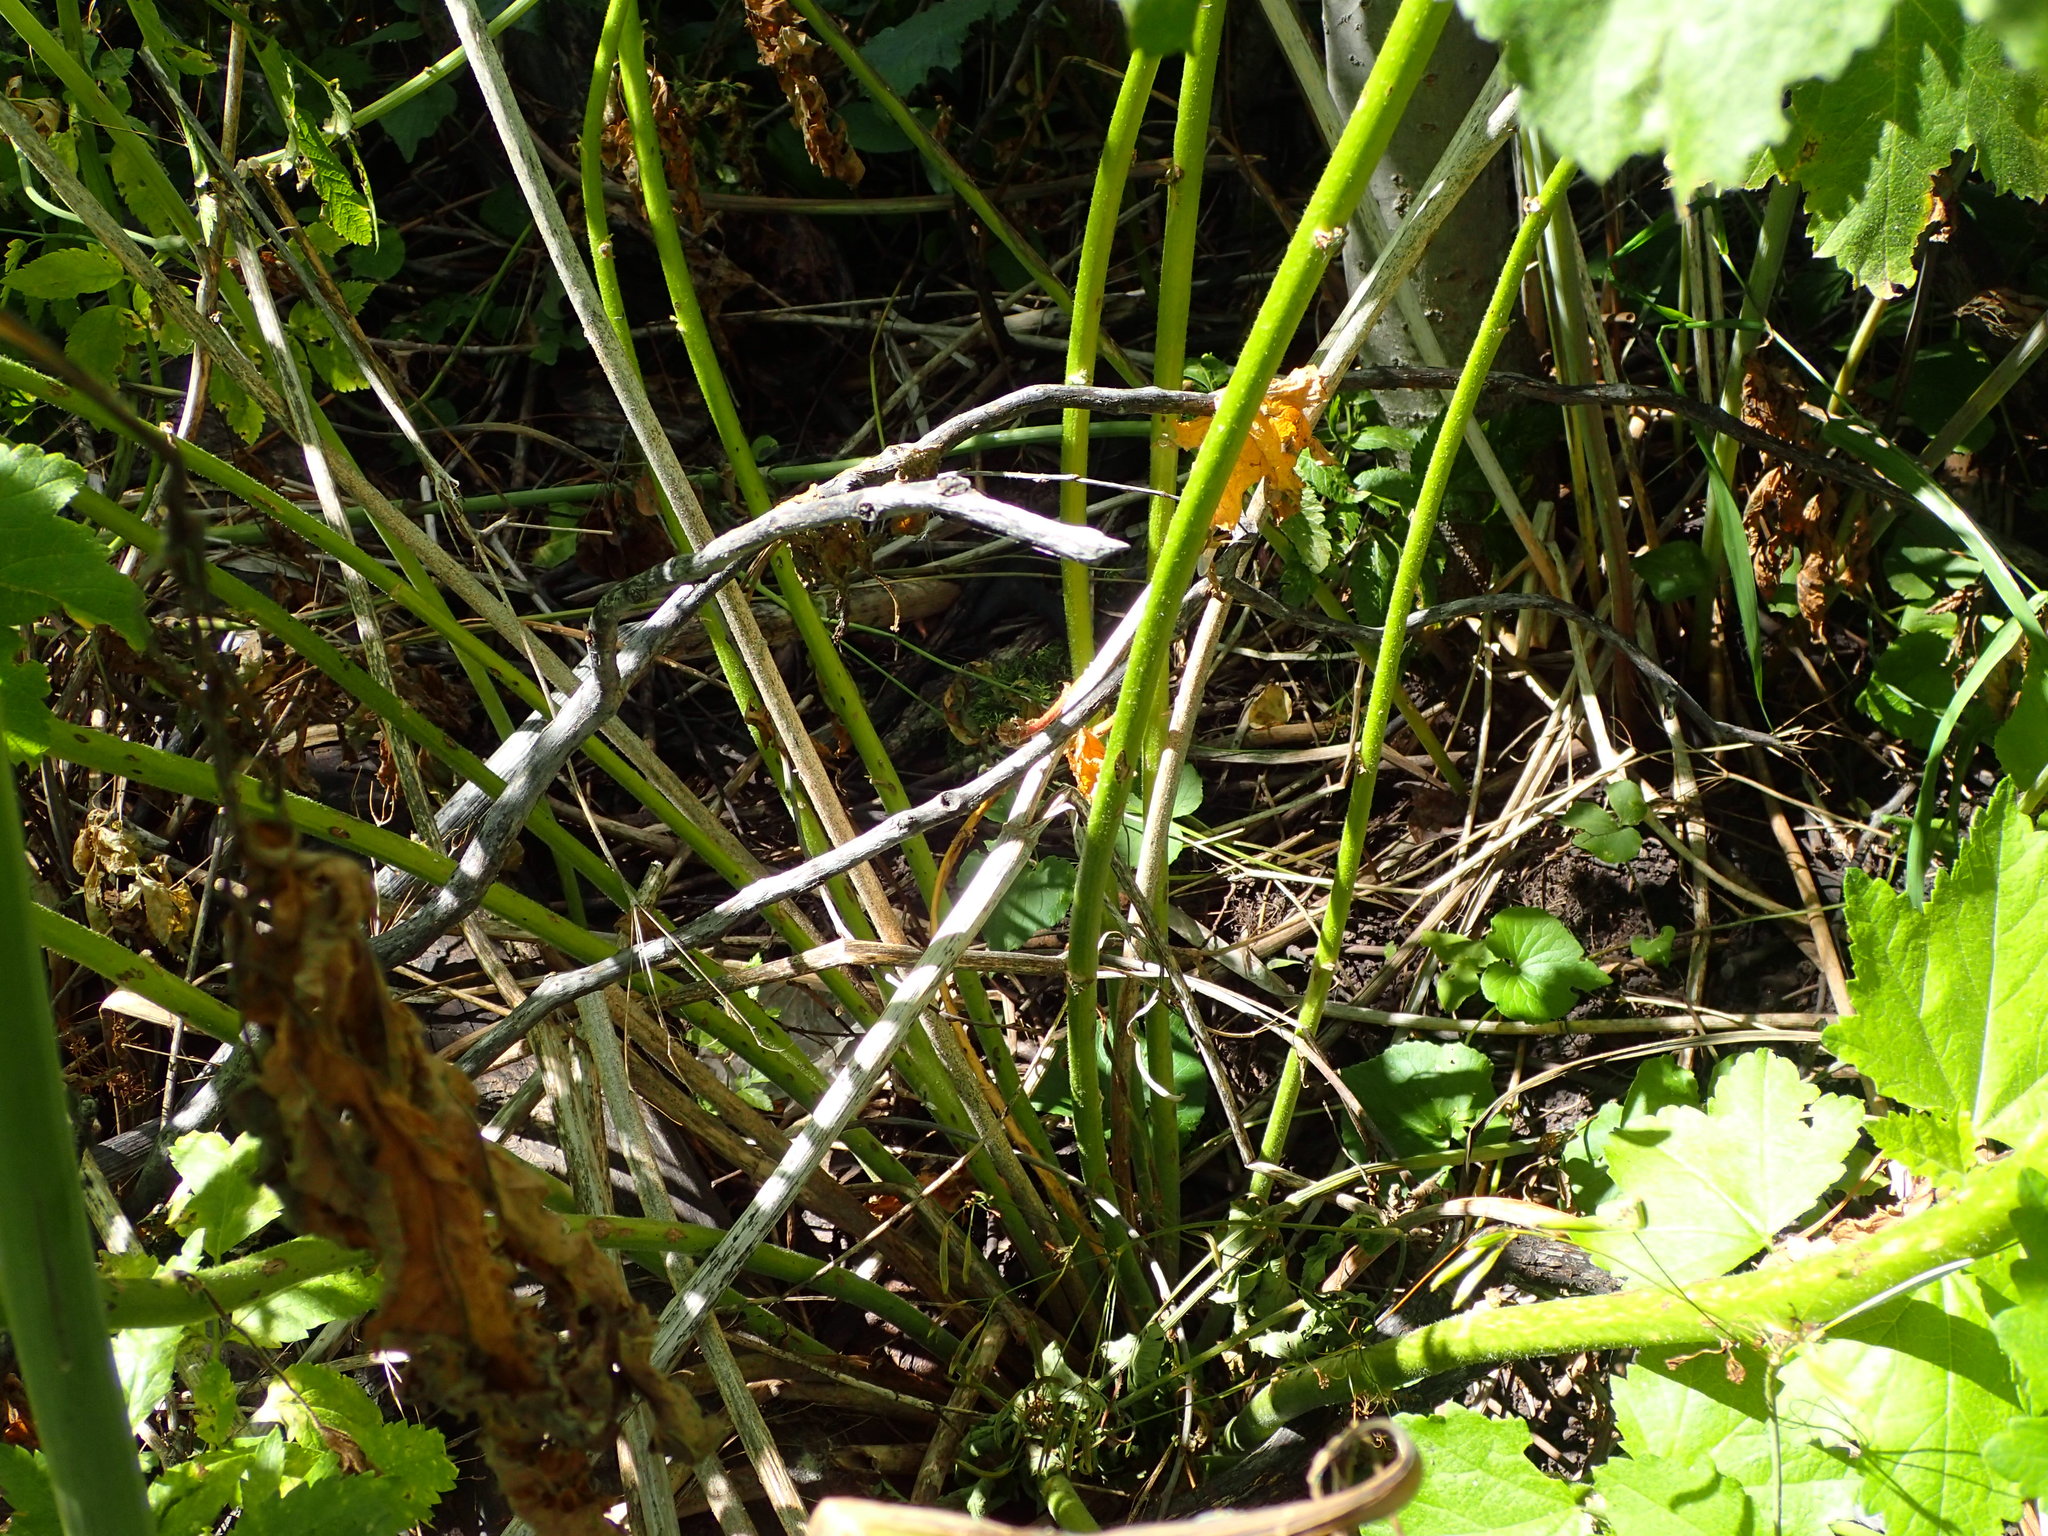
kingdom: Plantae
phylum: Tracheophyta
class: Magnoliopsida
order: Malvales
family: Malvaceae
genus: Iliamna
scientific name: Iliamna rivularis
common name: Wild hollyhock
